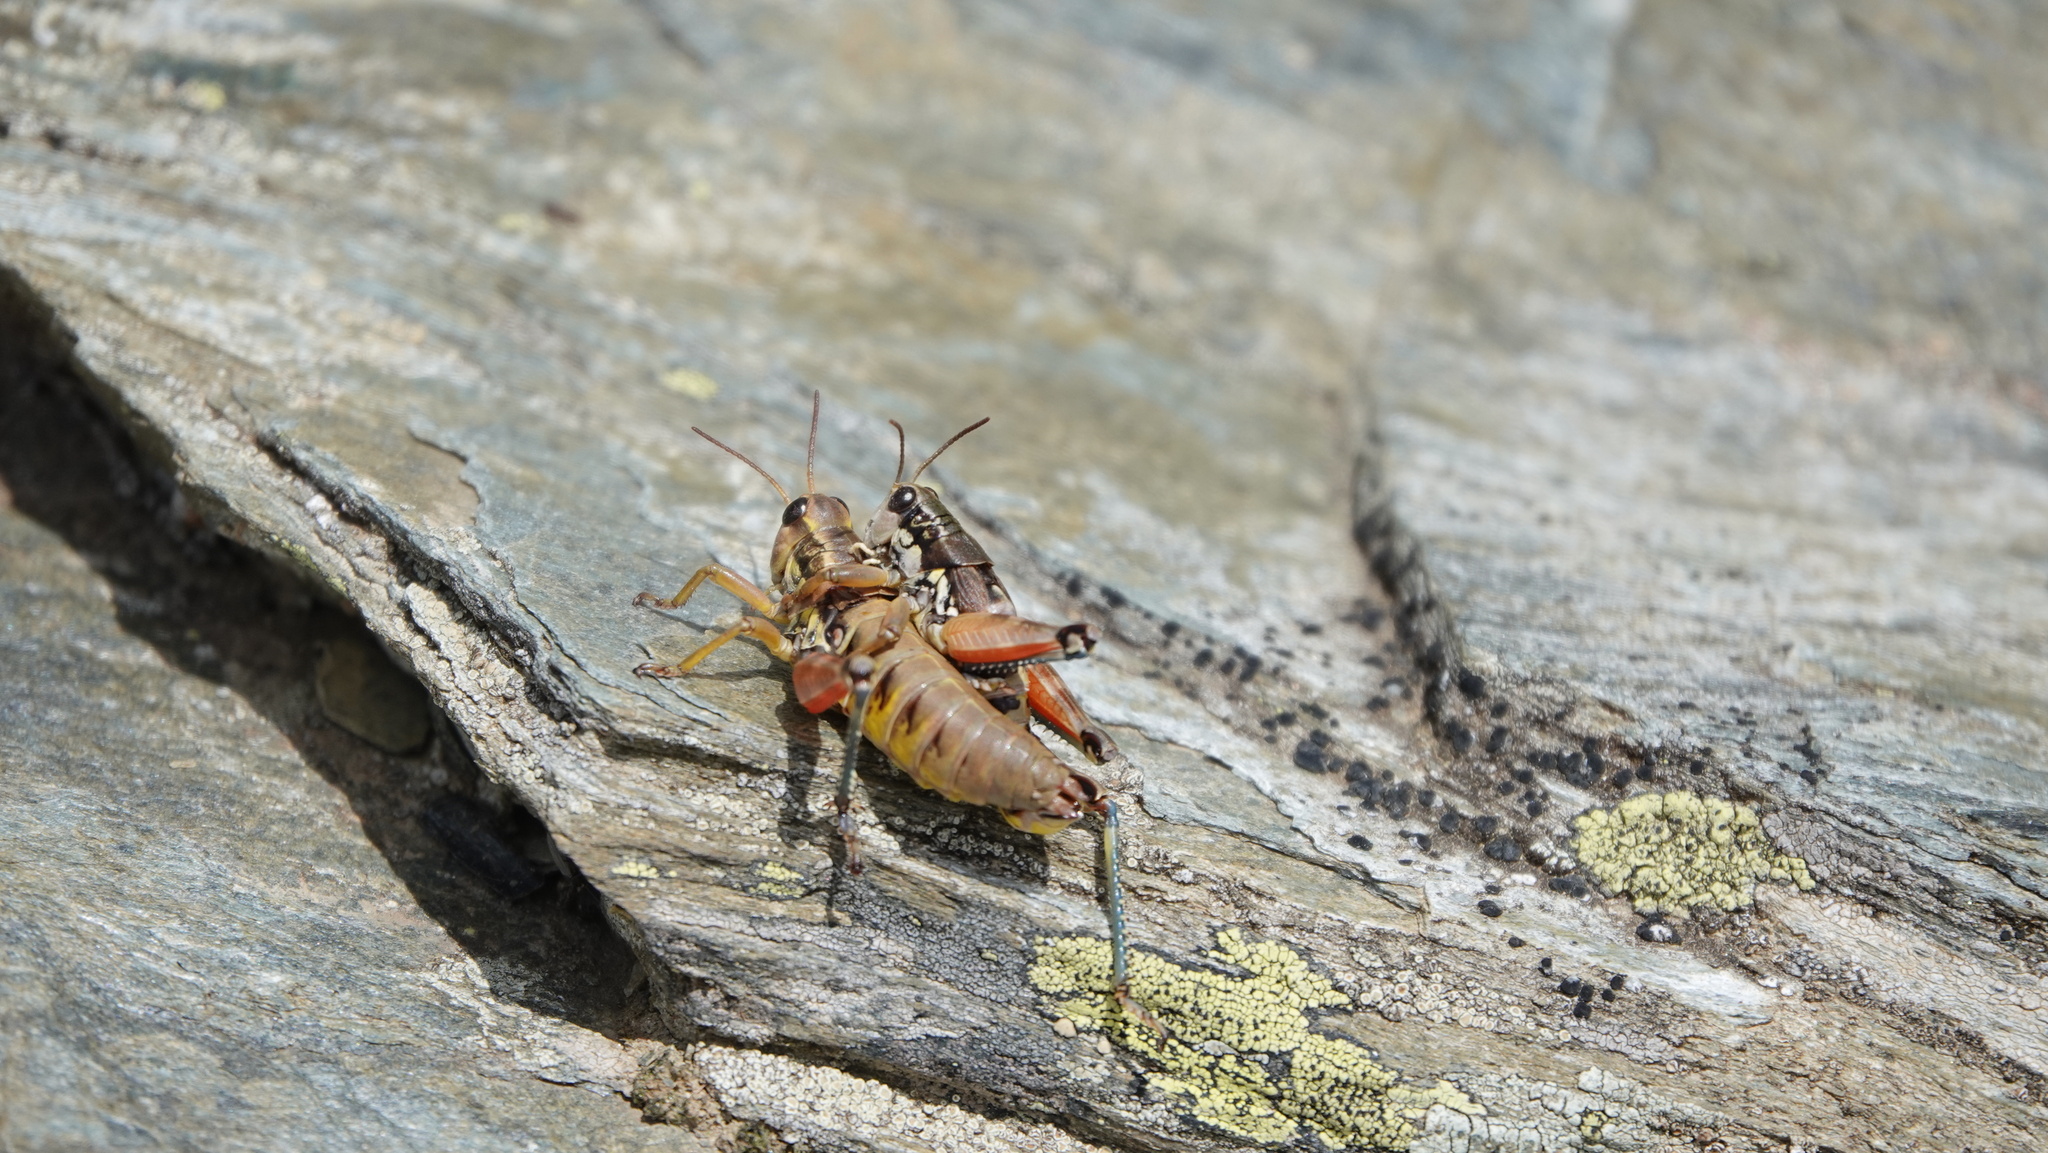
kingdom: Animalia
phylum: Arthropoda
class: Insecta
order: Orthoptera
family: Acrididae
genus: Podisma
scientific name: Podisma pedestris
